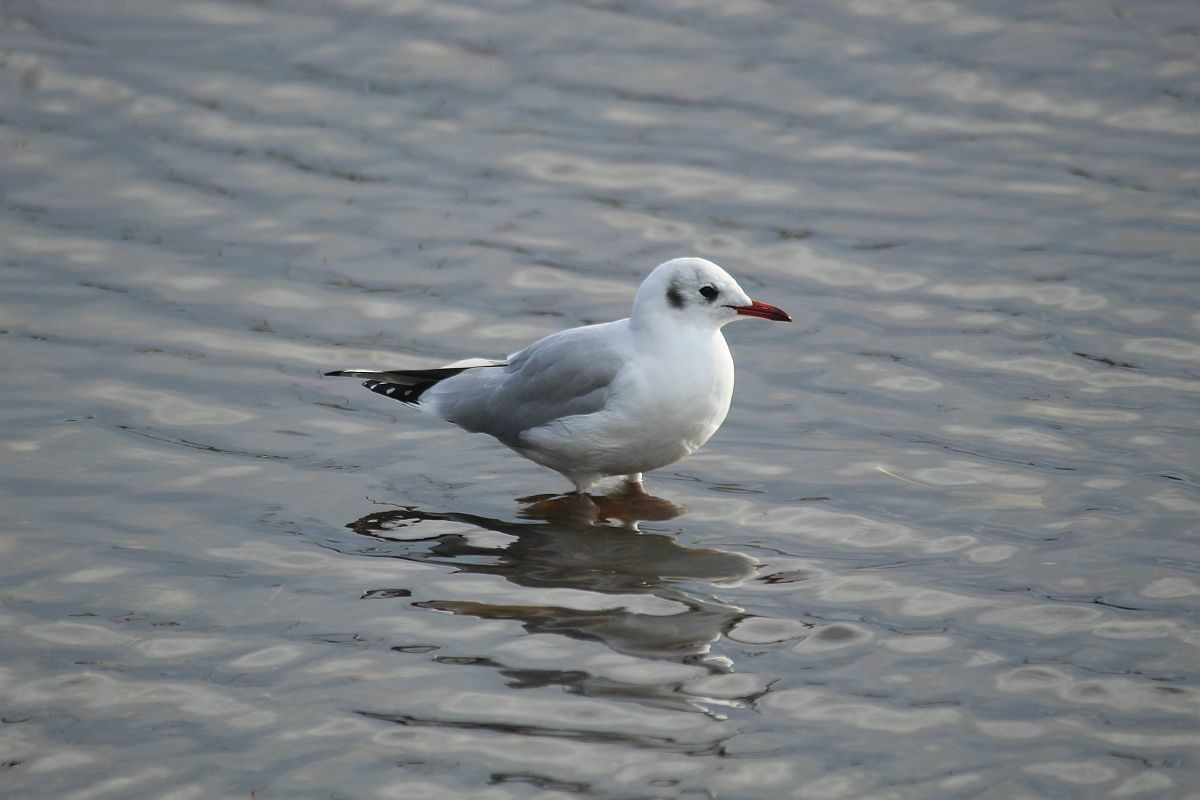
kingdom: Animalia
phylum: Chordata
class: Aves
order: Charadriiformes
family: Laridae
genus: Chroicocephalus
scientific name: Chroicocephalus ridibundus
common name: Black-headed gull
